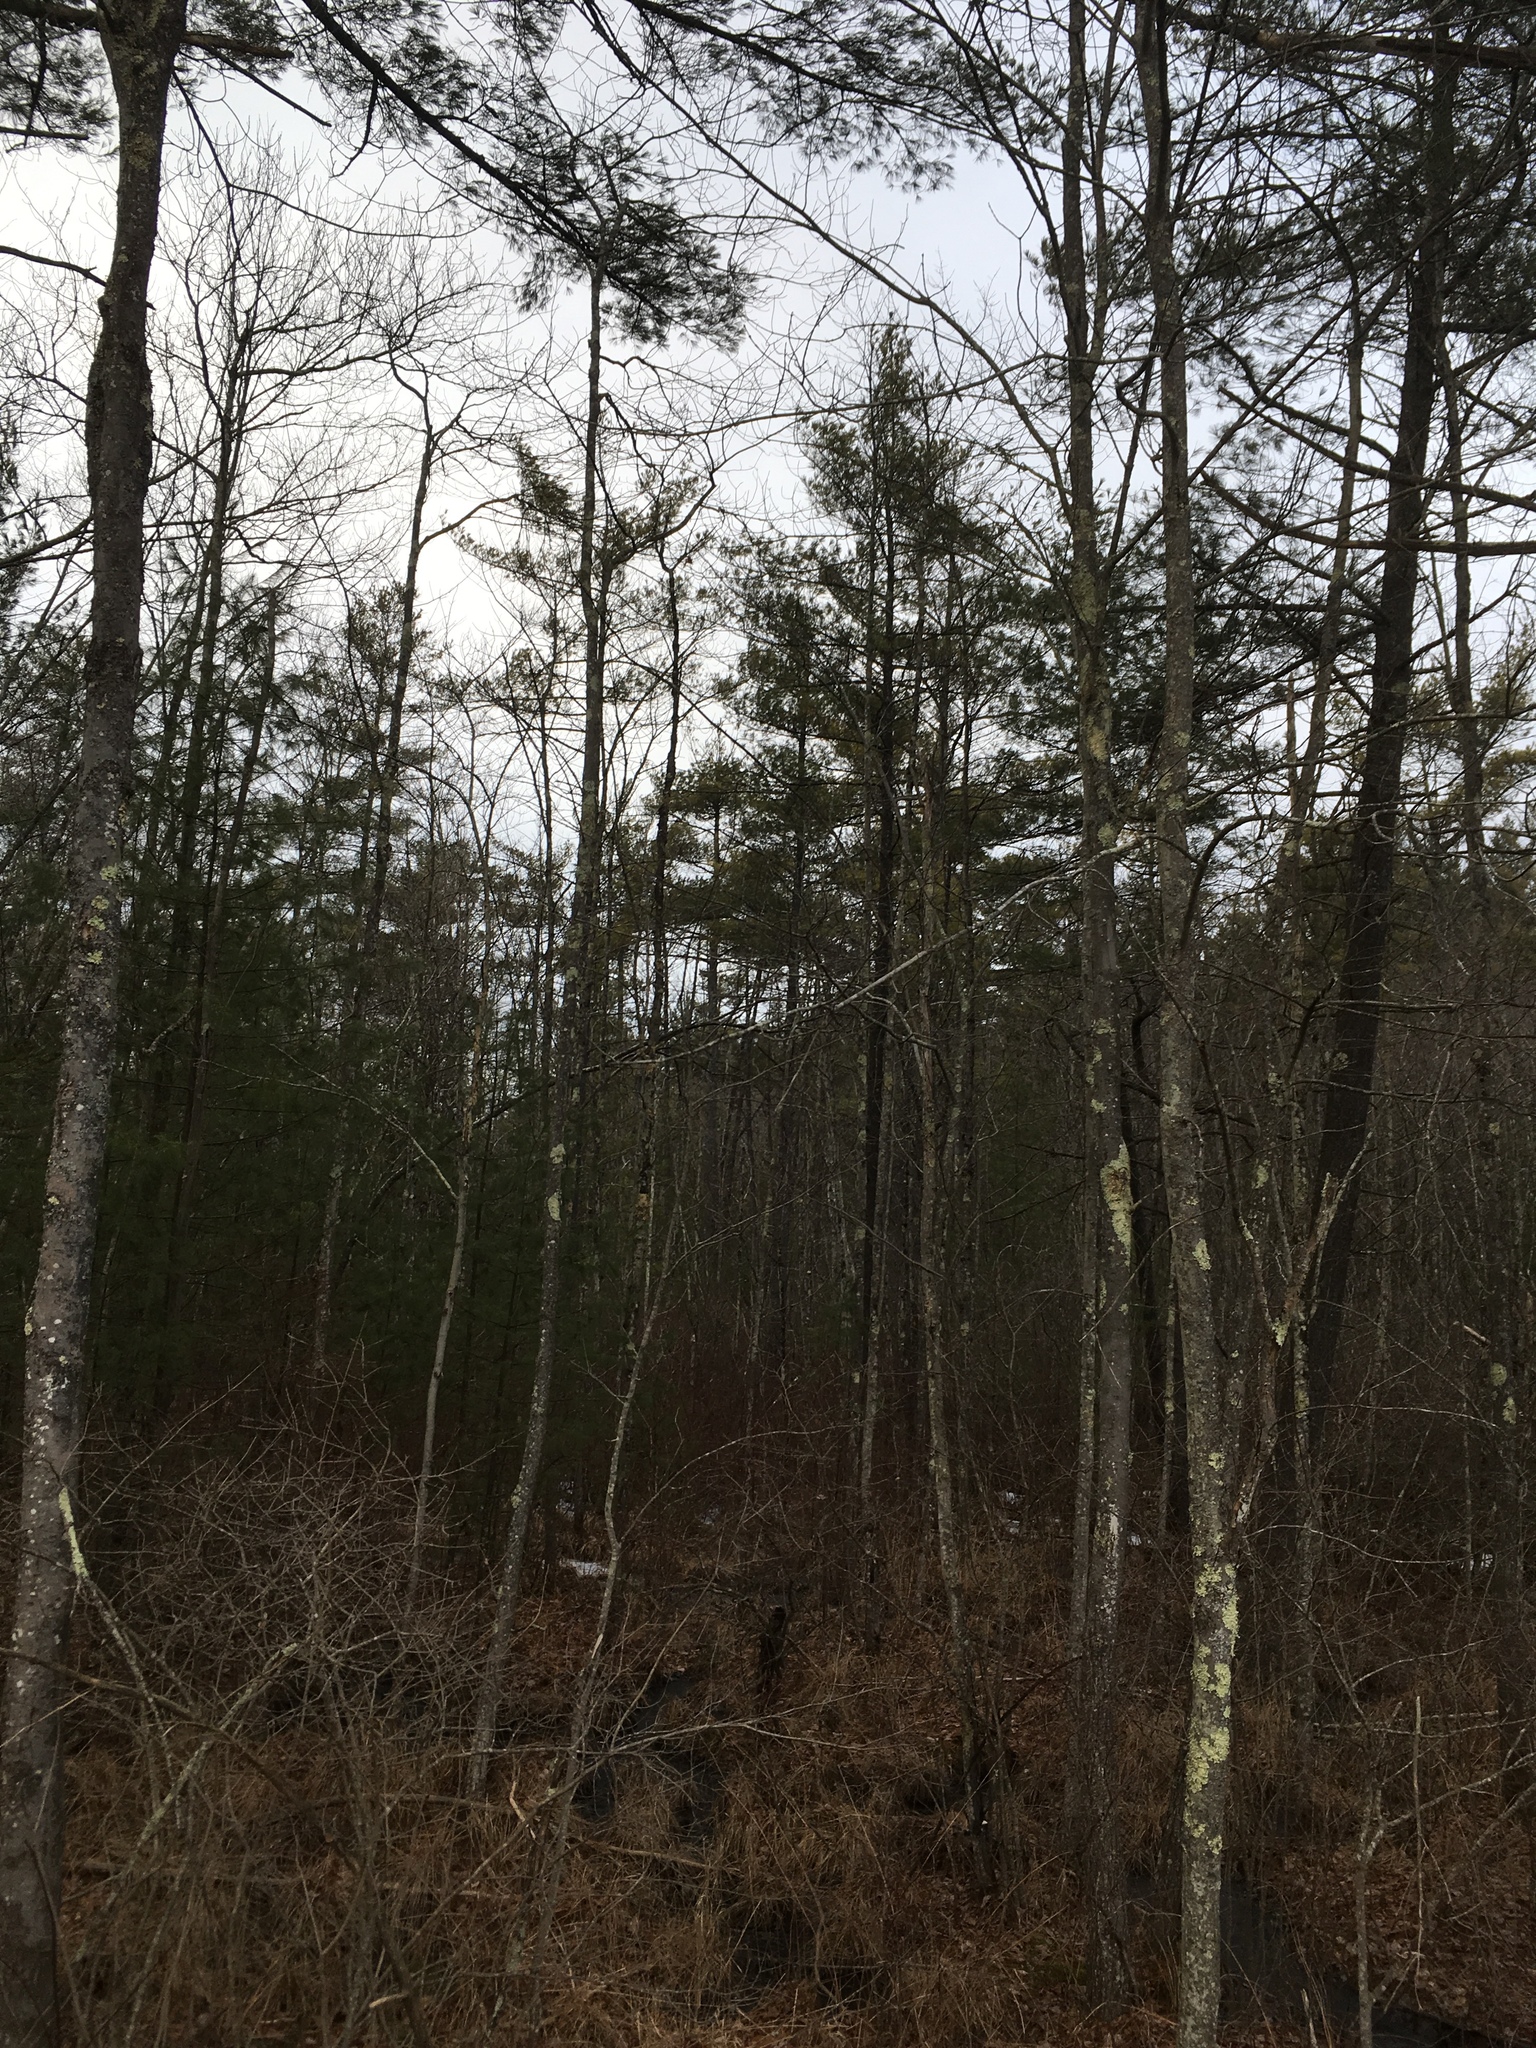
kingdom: Plantae
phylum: Tracheophyta
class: Pinopsida
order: Pinales
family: Pinaceae
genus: Pinus
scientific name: Pinus strobus
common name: Weymouth pine
